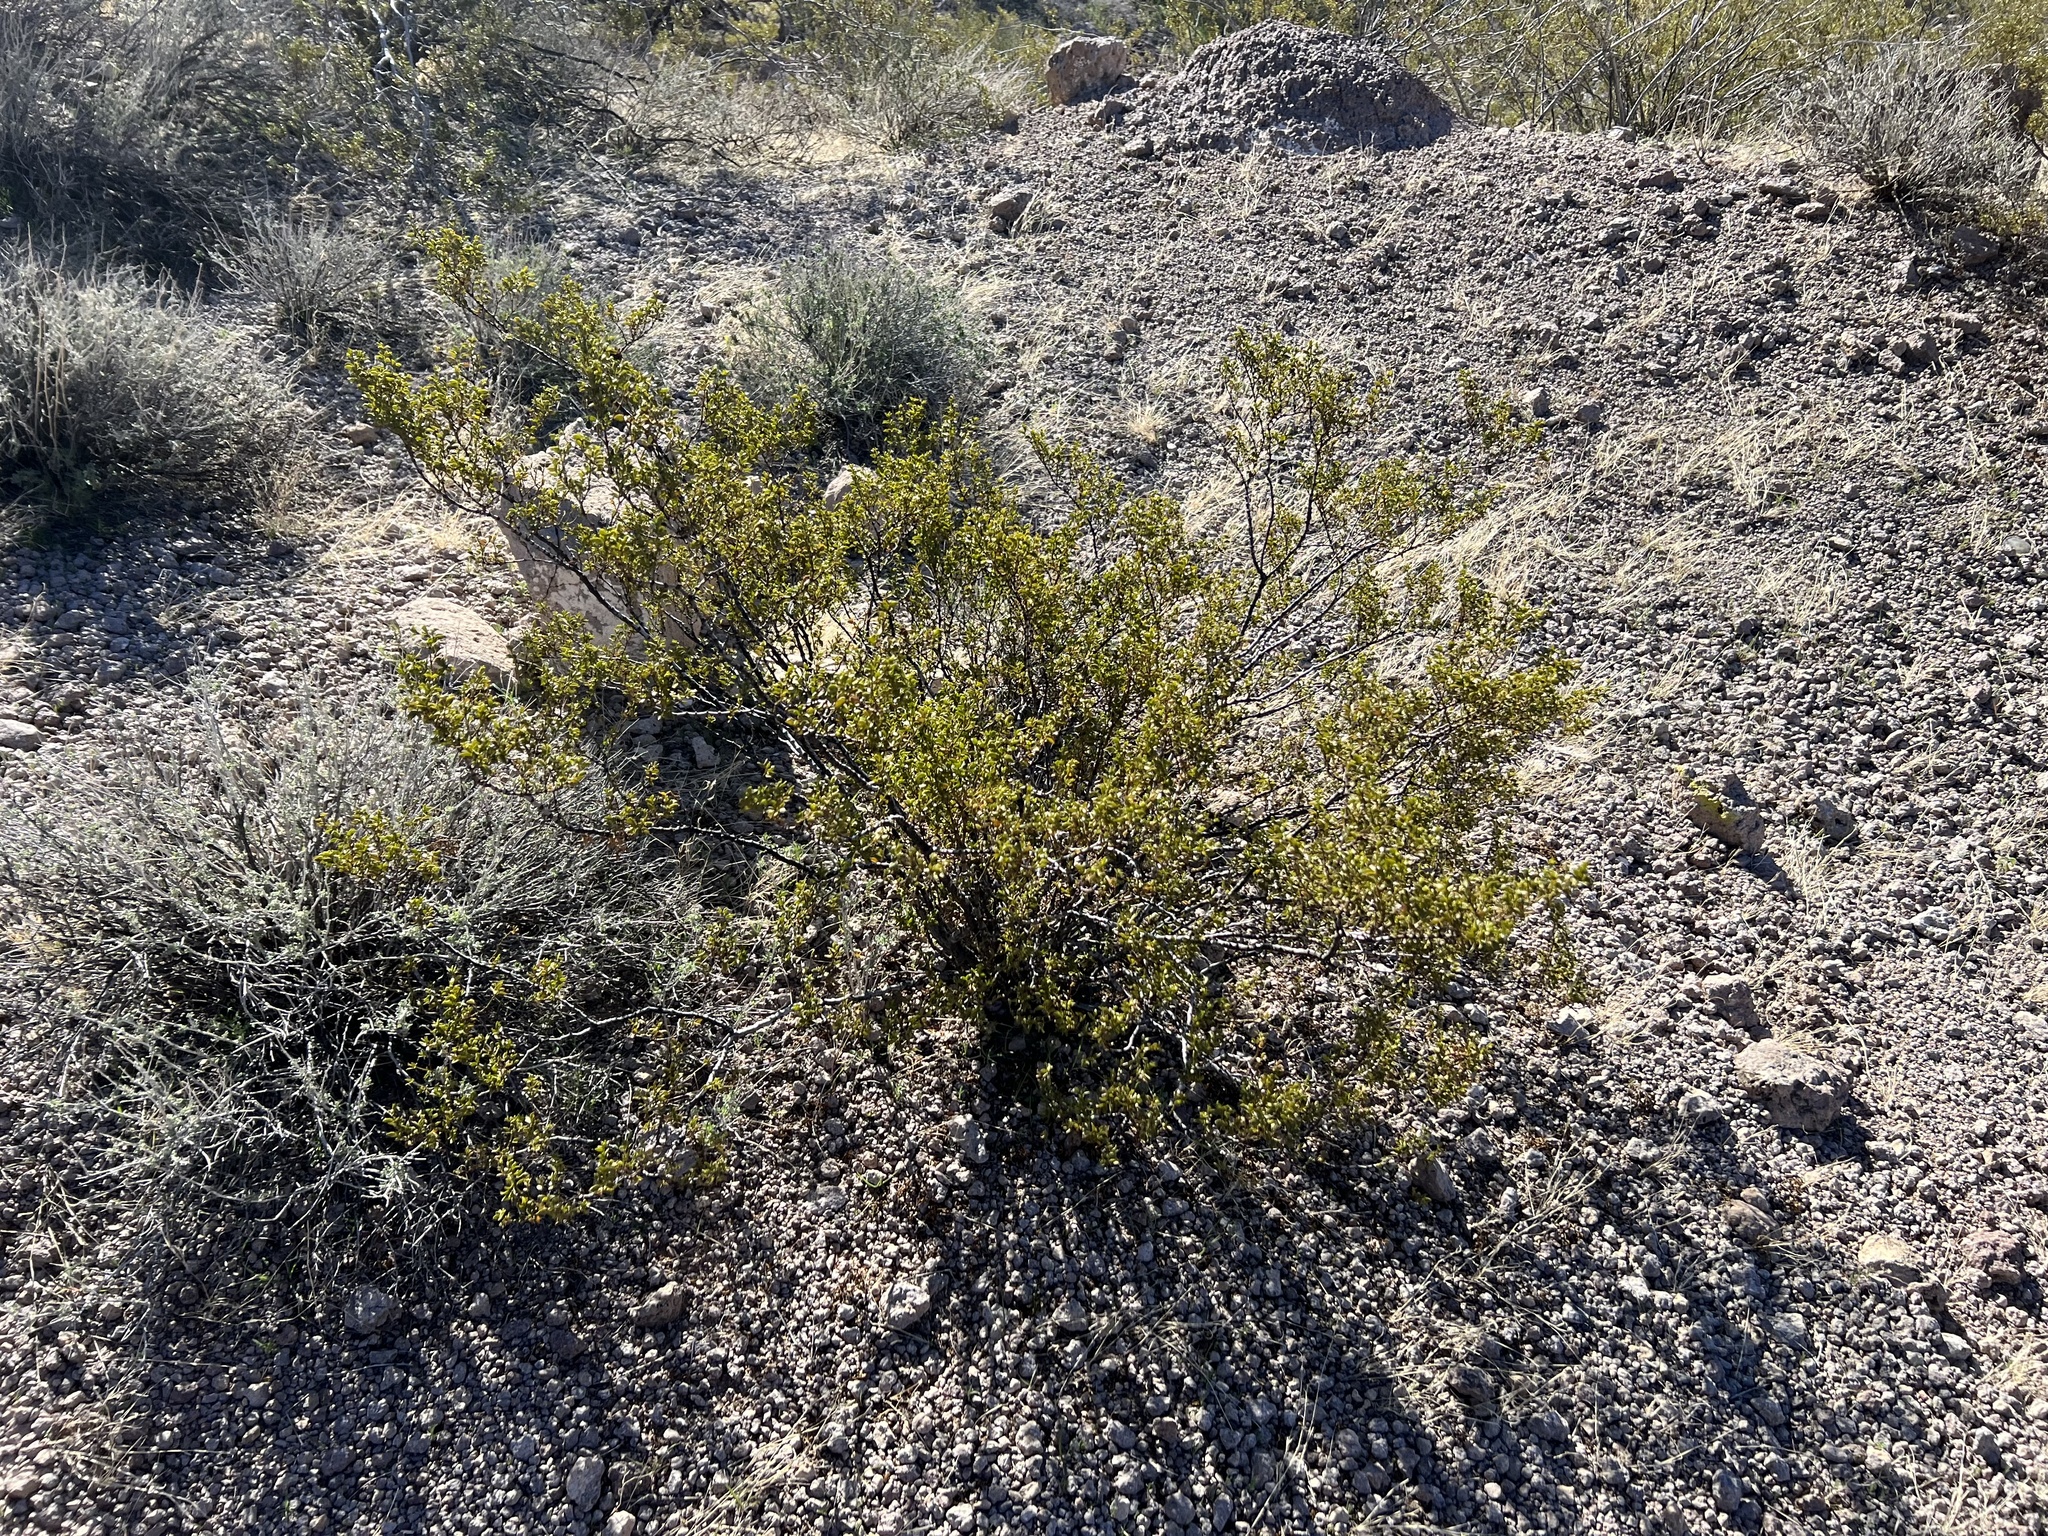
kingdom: Plantae
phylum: Tracheophyta
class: Magnoliopsida
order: Zygophyllales
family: Zygophyllaceae
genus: Larrea
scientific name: Larrea tridentata
